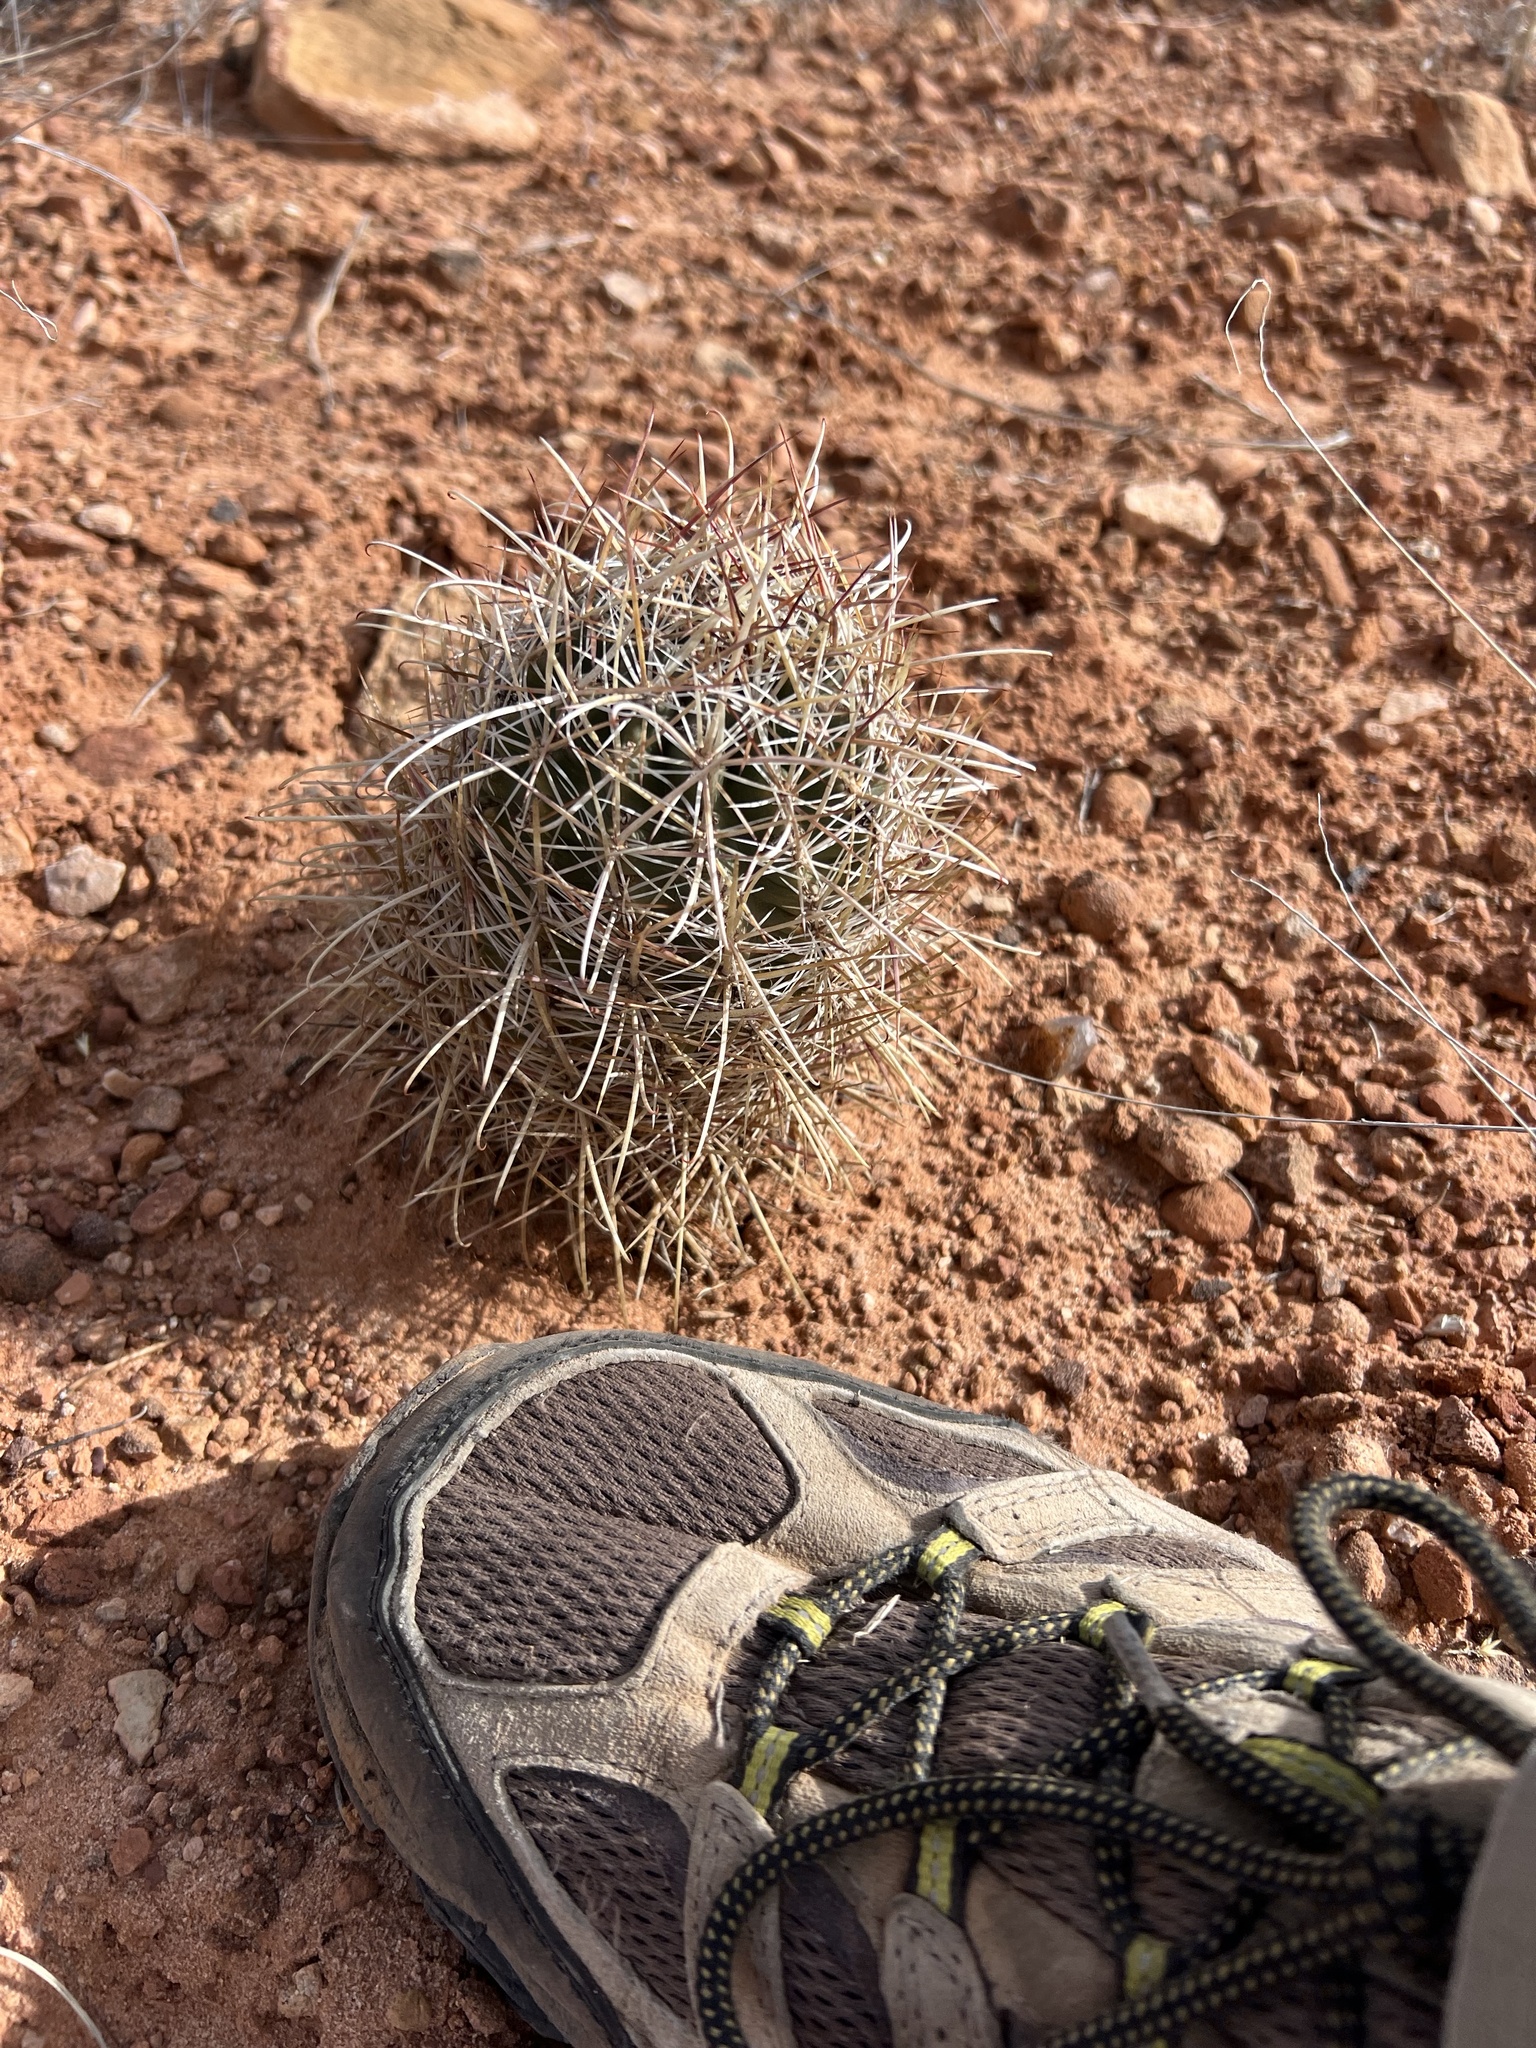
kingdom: Plantae
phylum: Tracheophyta
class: Magnoliopsida
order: Caryophyllales
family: Cactaceae
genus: Sclerocactus
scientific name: Sclerocactus parviflorus
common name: Small-flower fishhook cactus
